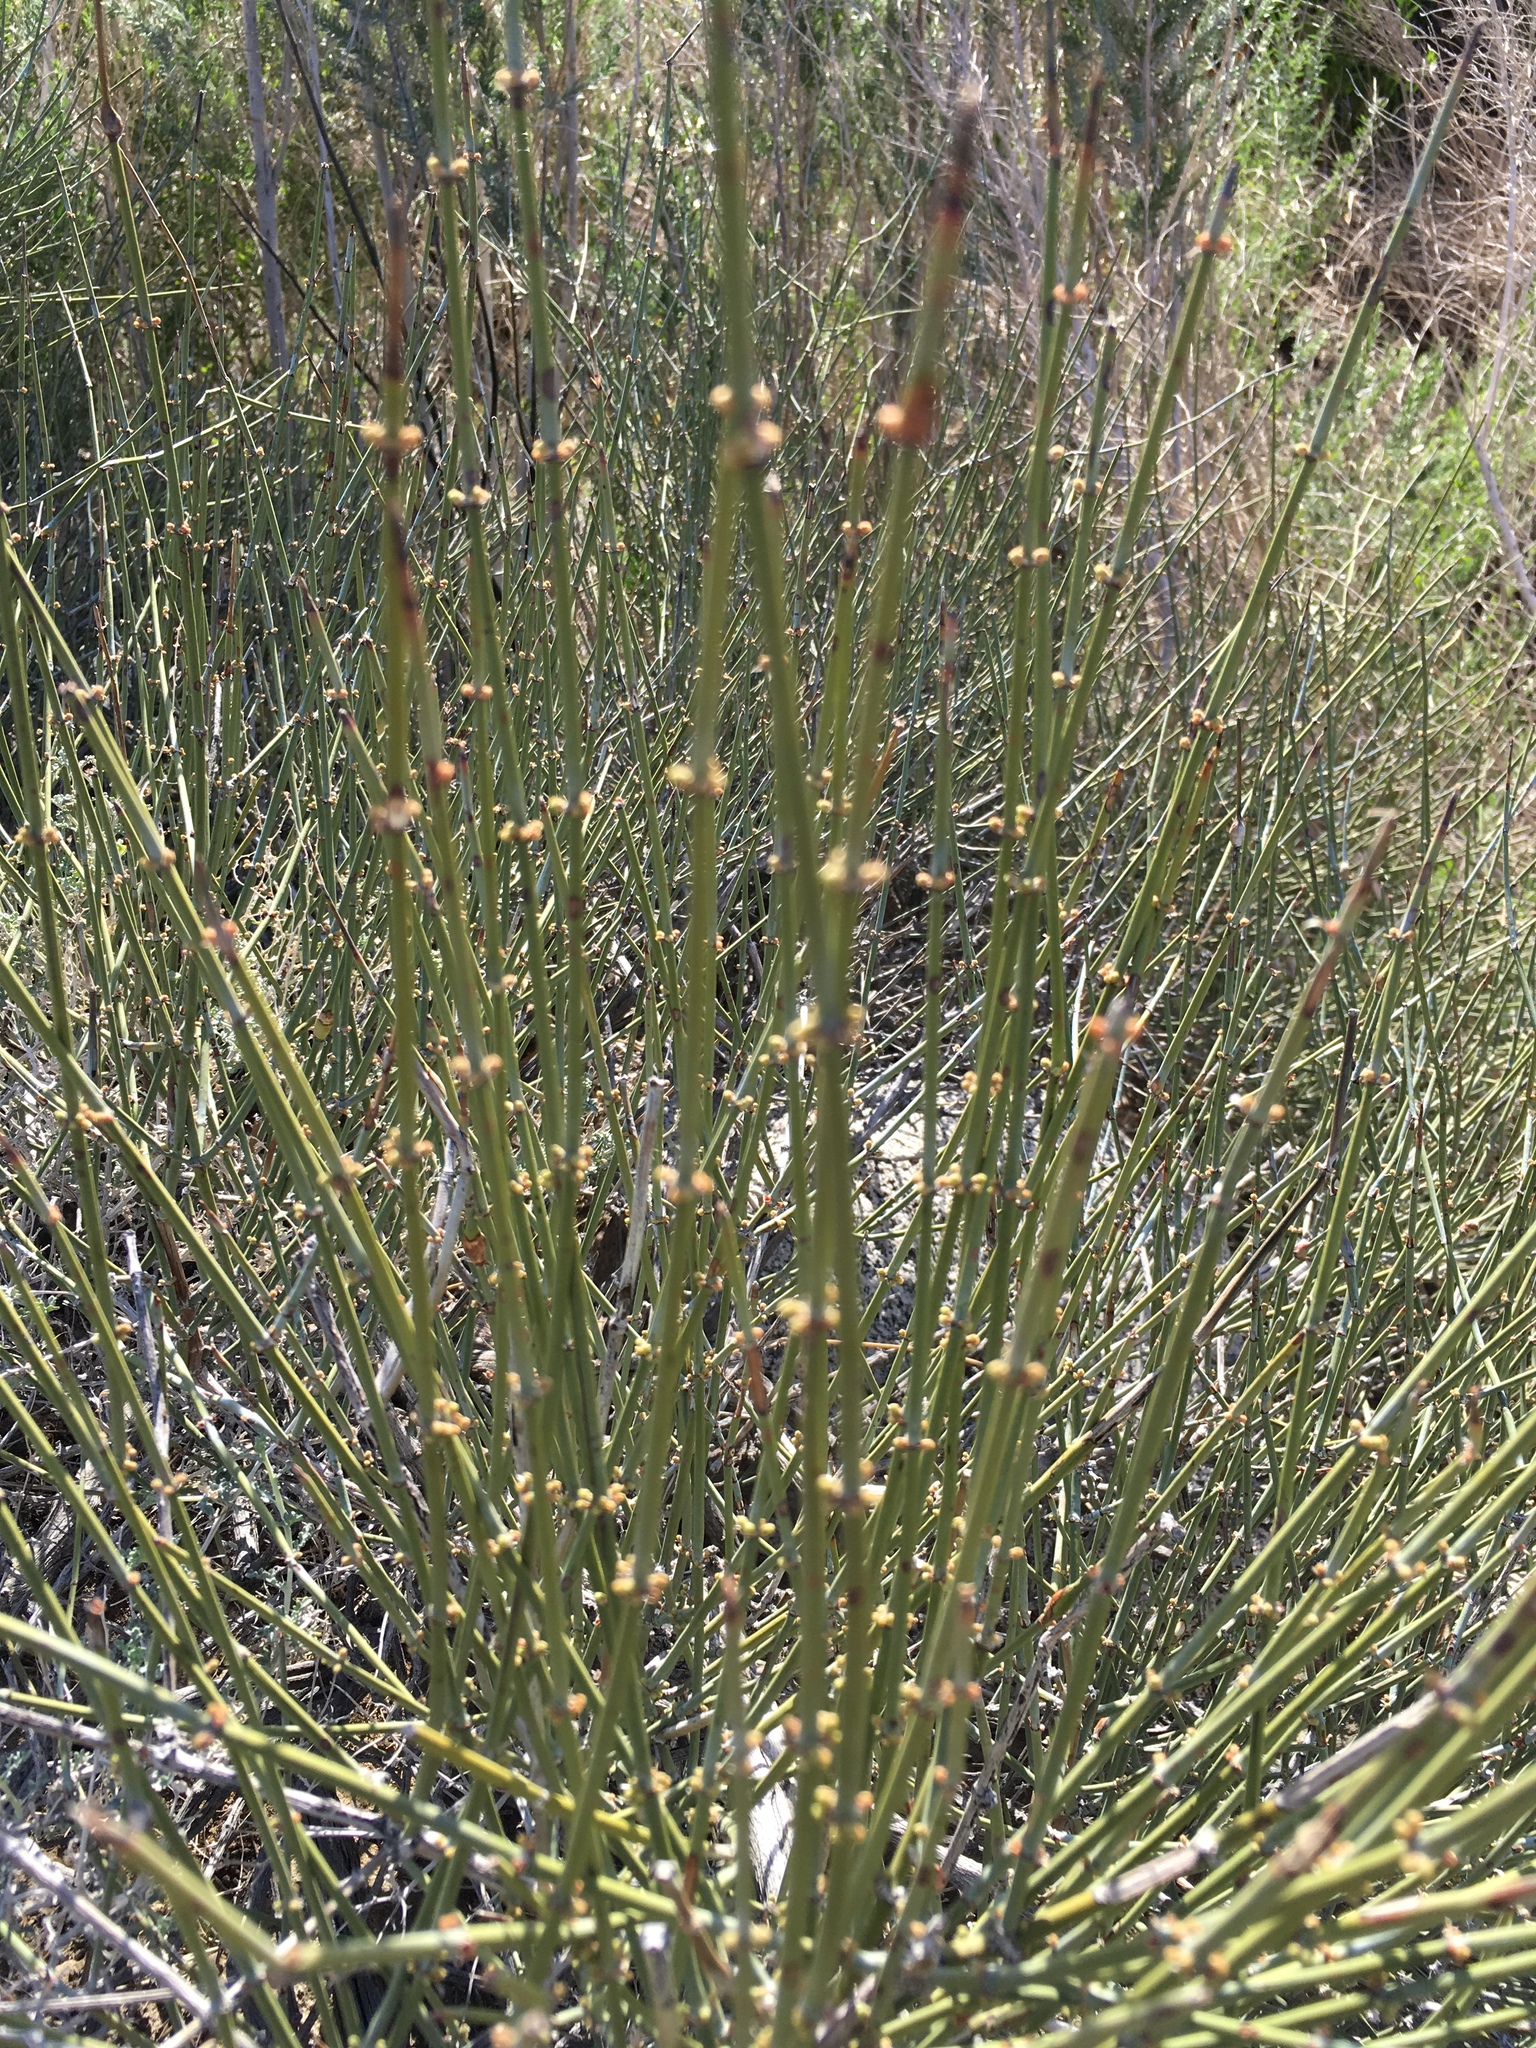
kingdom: Plantae
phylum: Tracheophyta
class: Gnetopsida
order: Ephedrales
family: Ephedraceae
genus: Ephedra
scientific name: Ephedra californica
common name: California ephedra
